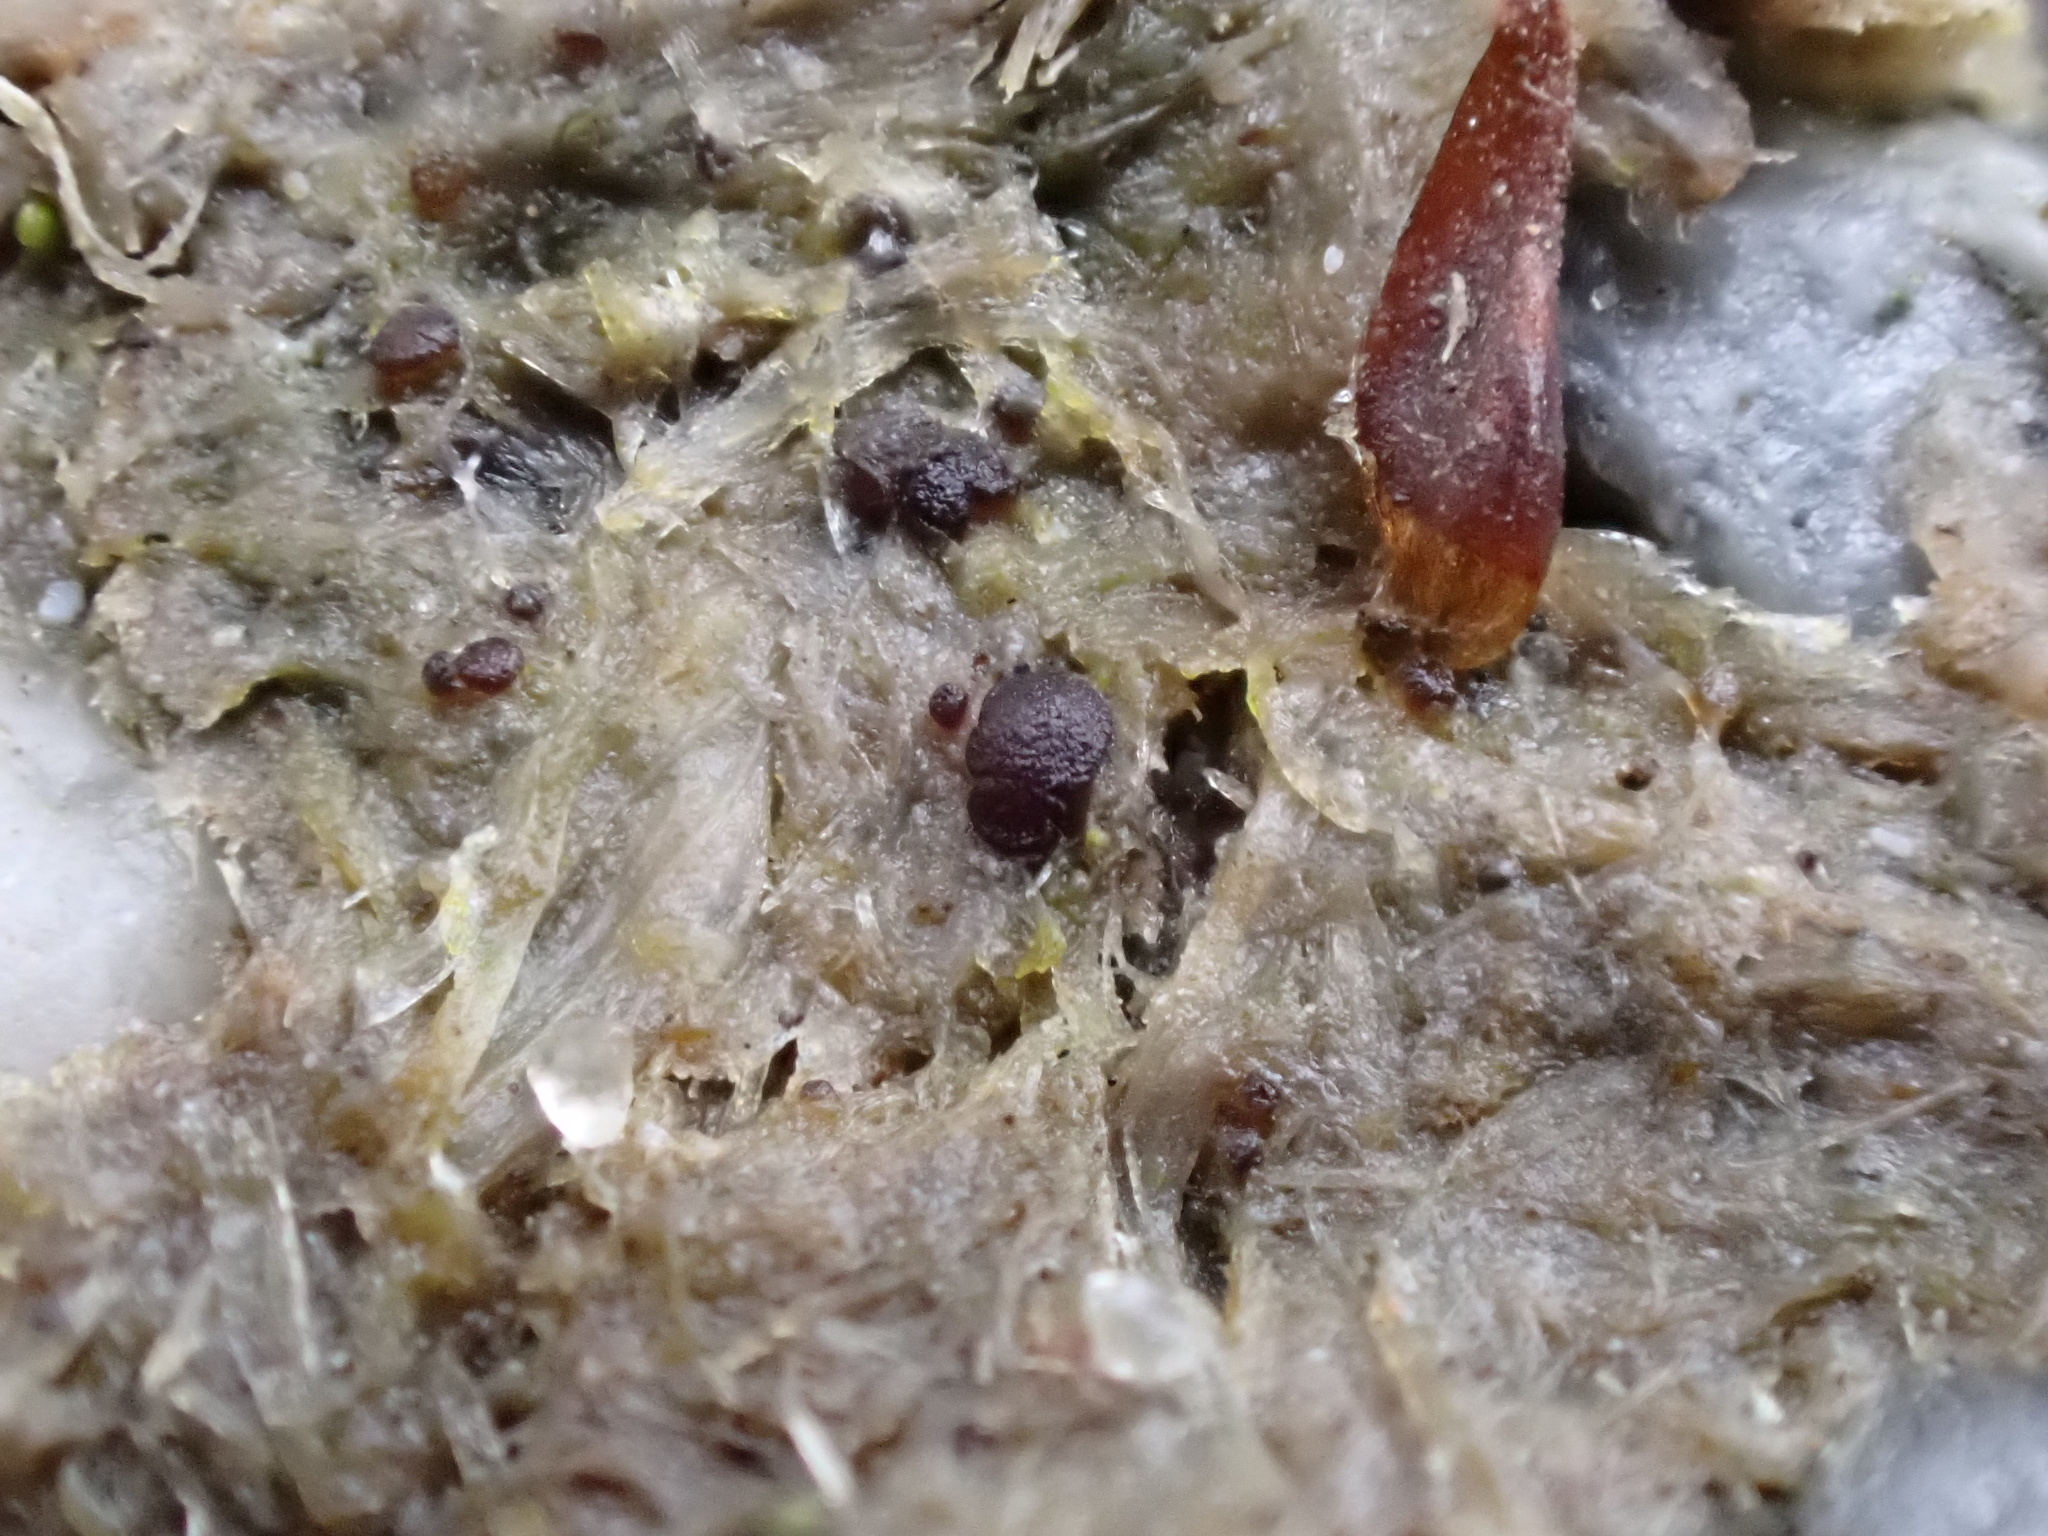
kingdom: Fungi
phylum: Ascomycota
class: Pezizomycetes
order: Pezizales
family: Ascobolaceae
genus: Saccobolus
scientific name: Saccobolus quadrisporus
